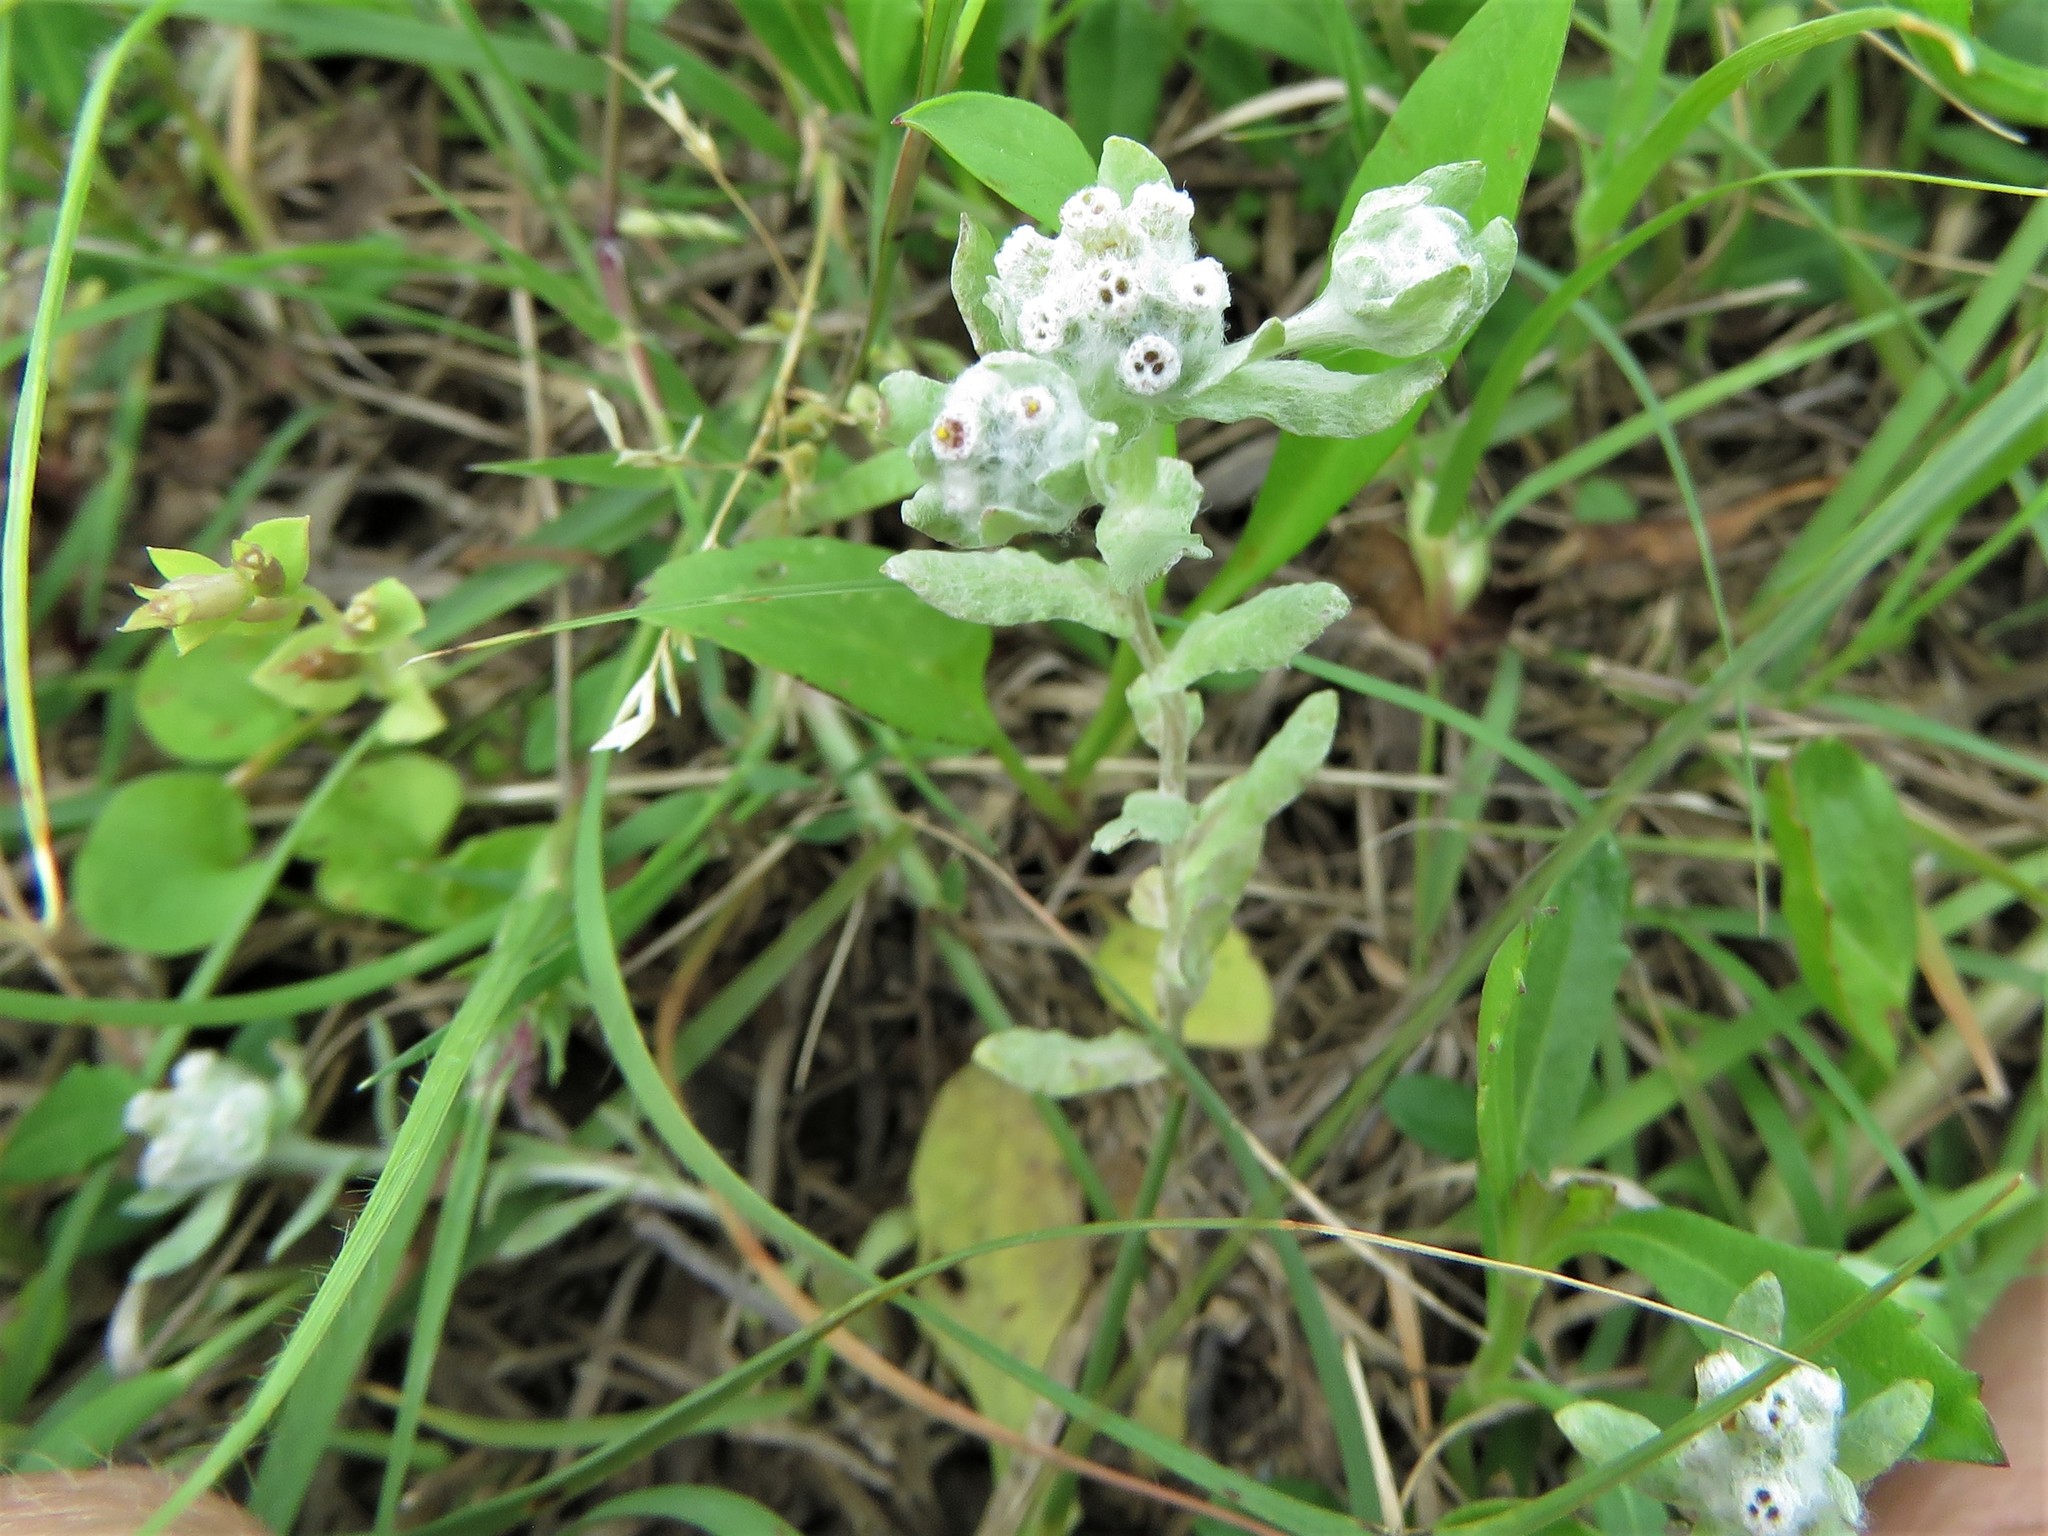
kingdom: Plantae
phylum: Tracheophyta
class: Magnoliopsida
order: Asterales
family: Asteraceae
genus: Diaperia
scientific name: Diaperia verna
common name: Many-stem rabbit-tobacco
